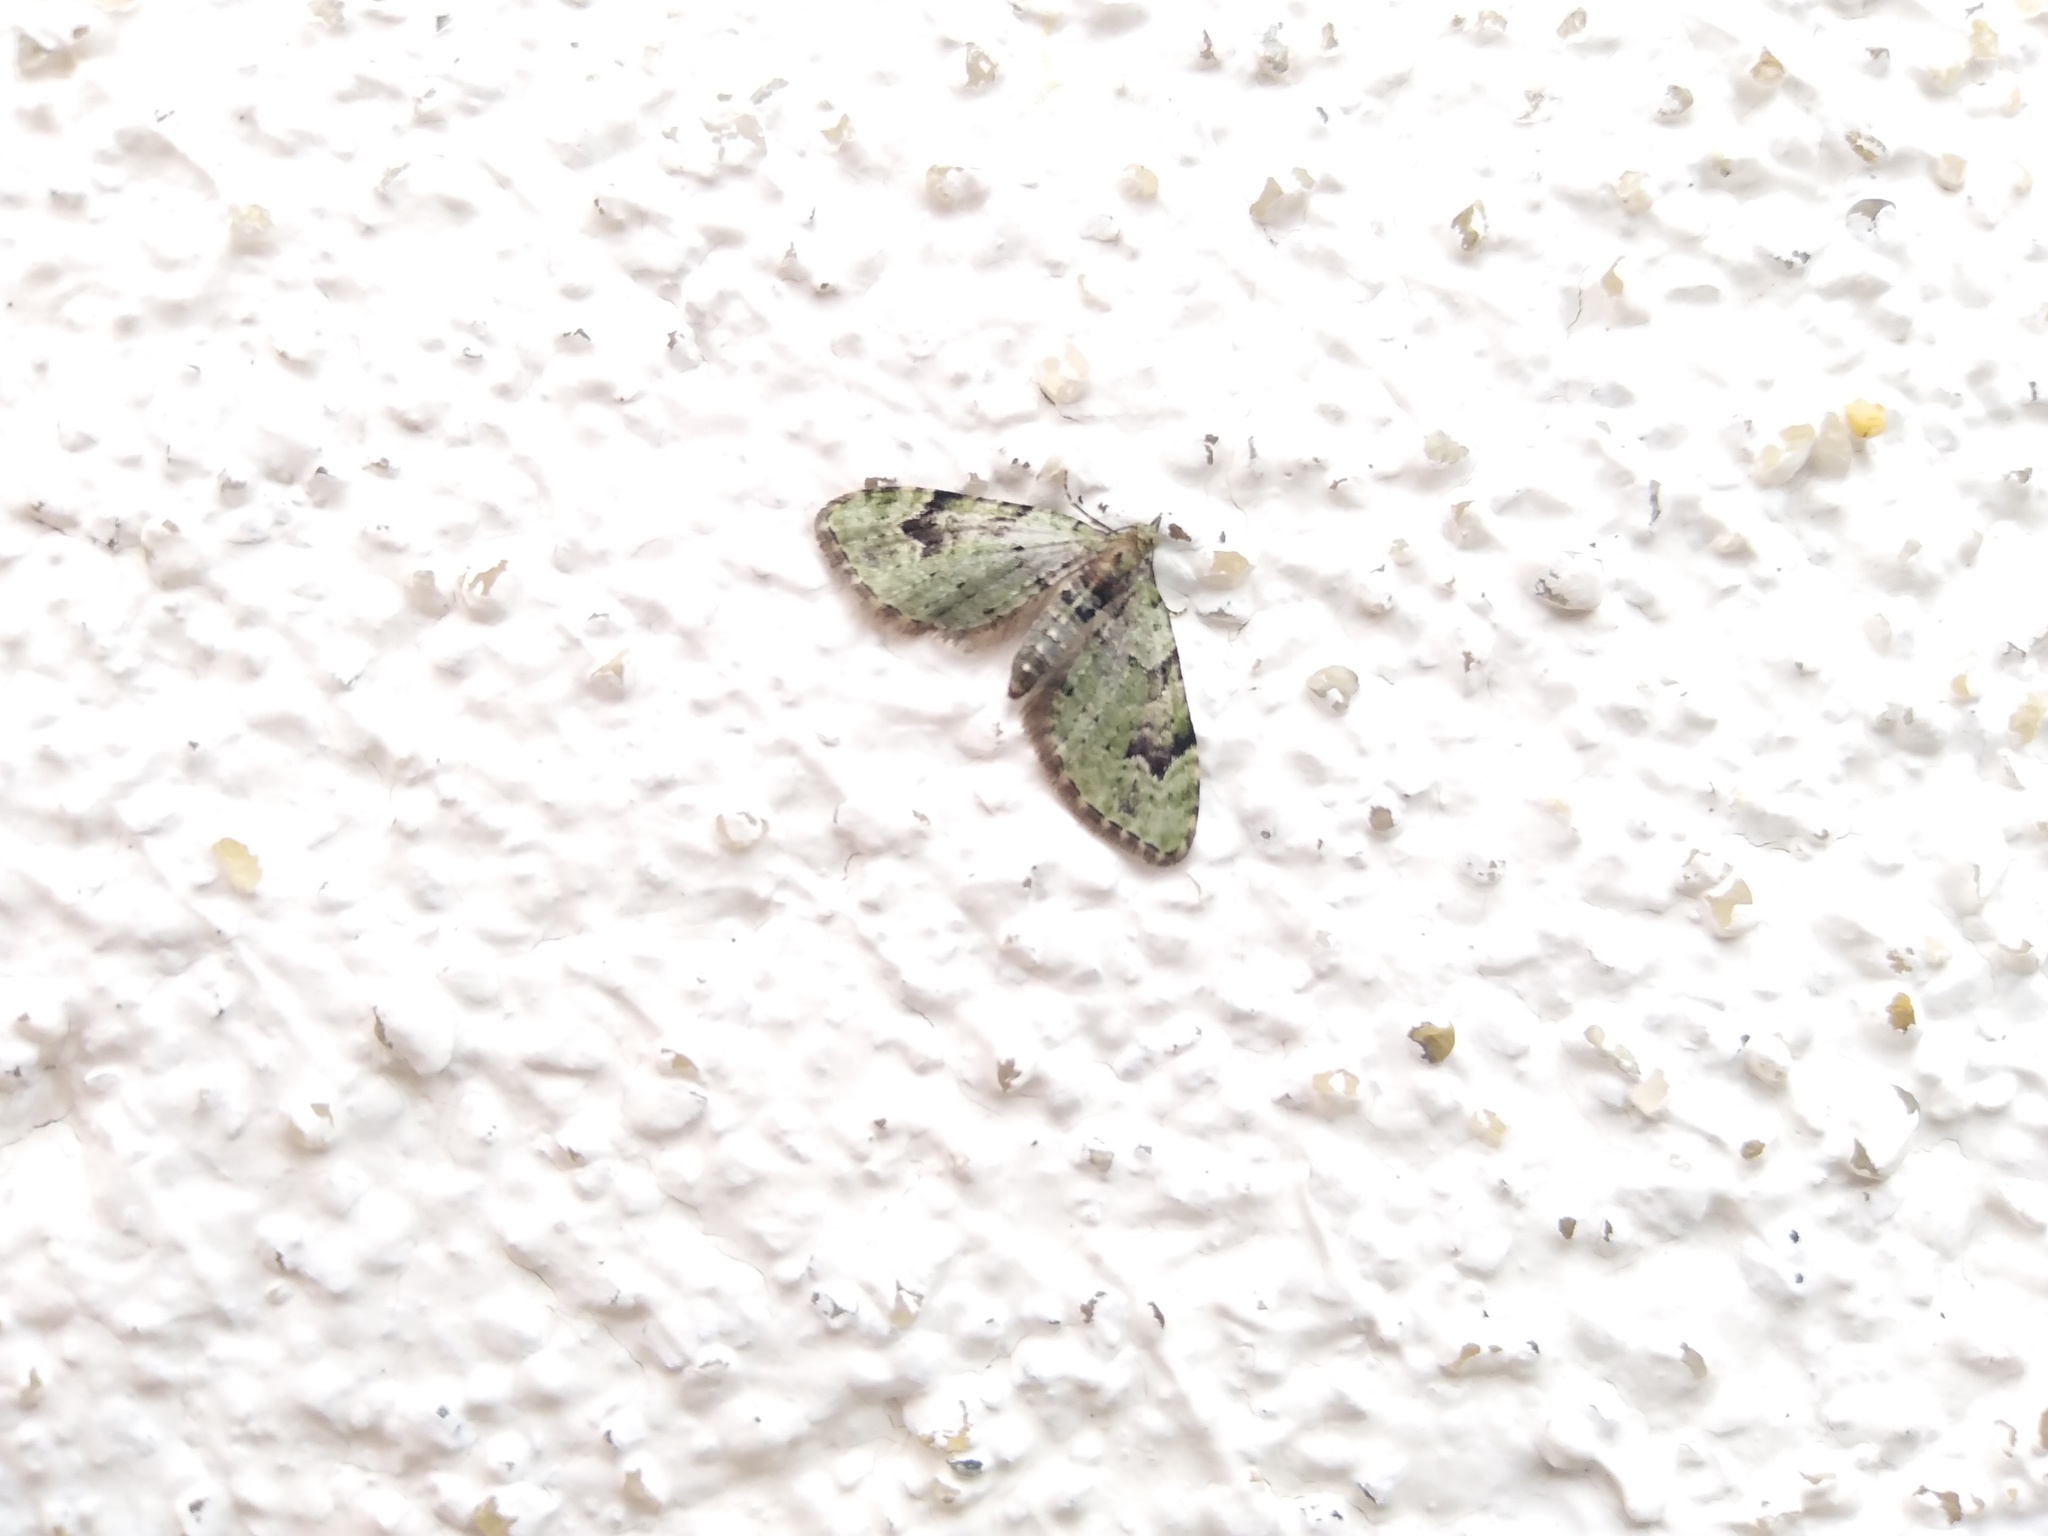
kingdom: Animalia
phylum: Arthropoda
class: Insecta
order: Lepidoptera
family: Geometridae
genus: Chloroclystis
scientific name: Chloroclystis v-ata
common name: V-pug
